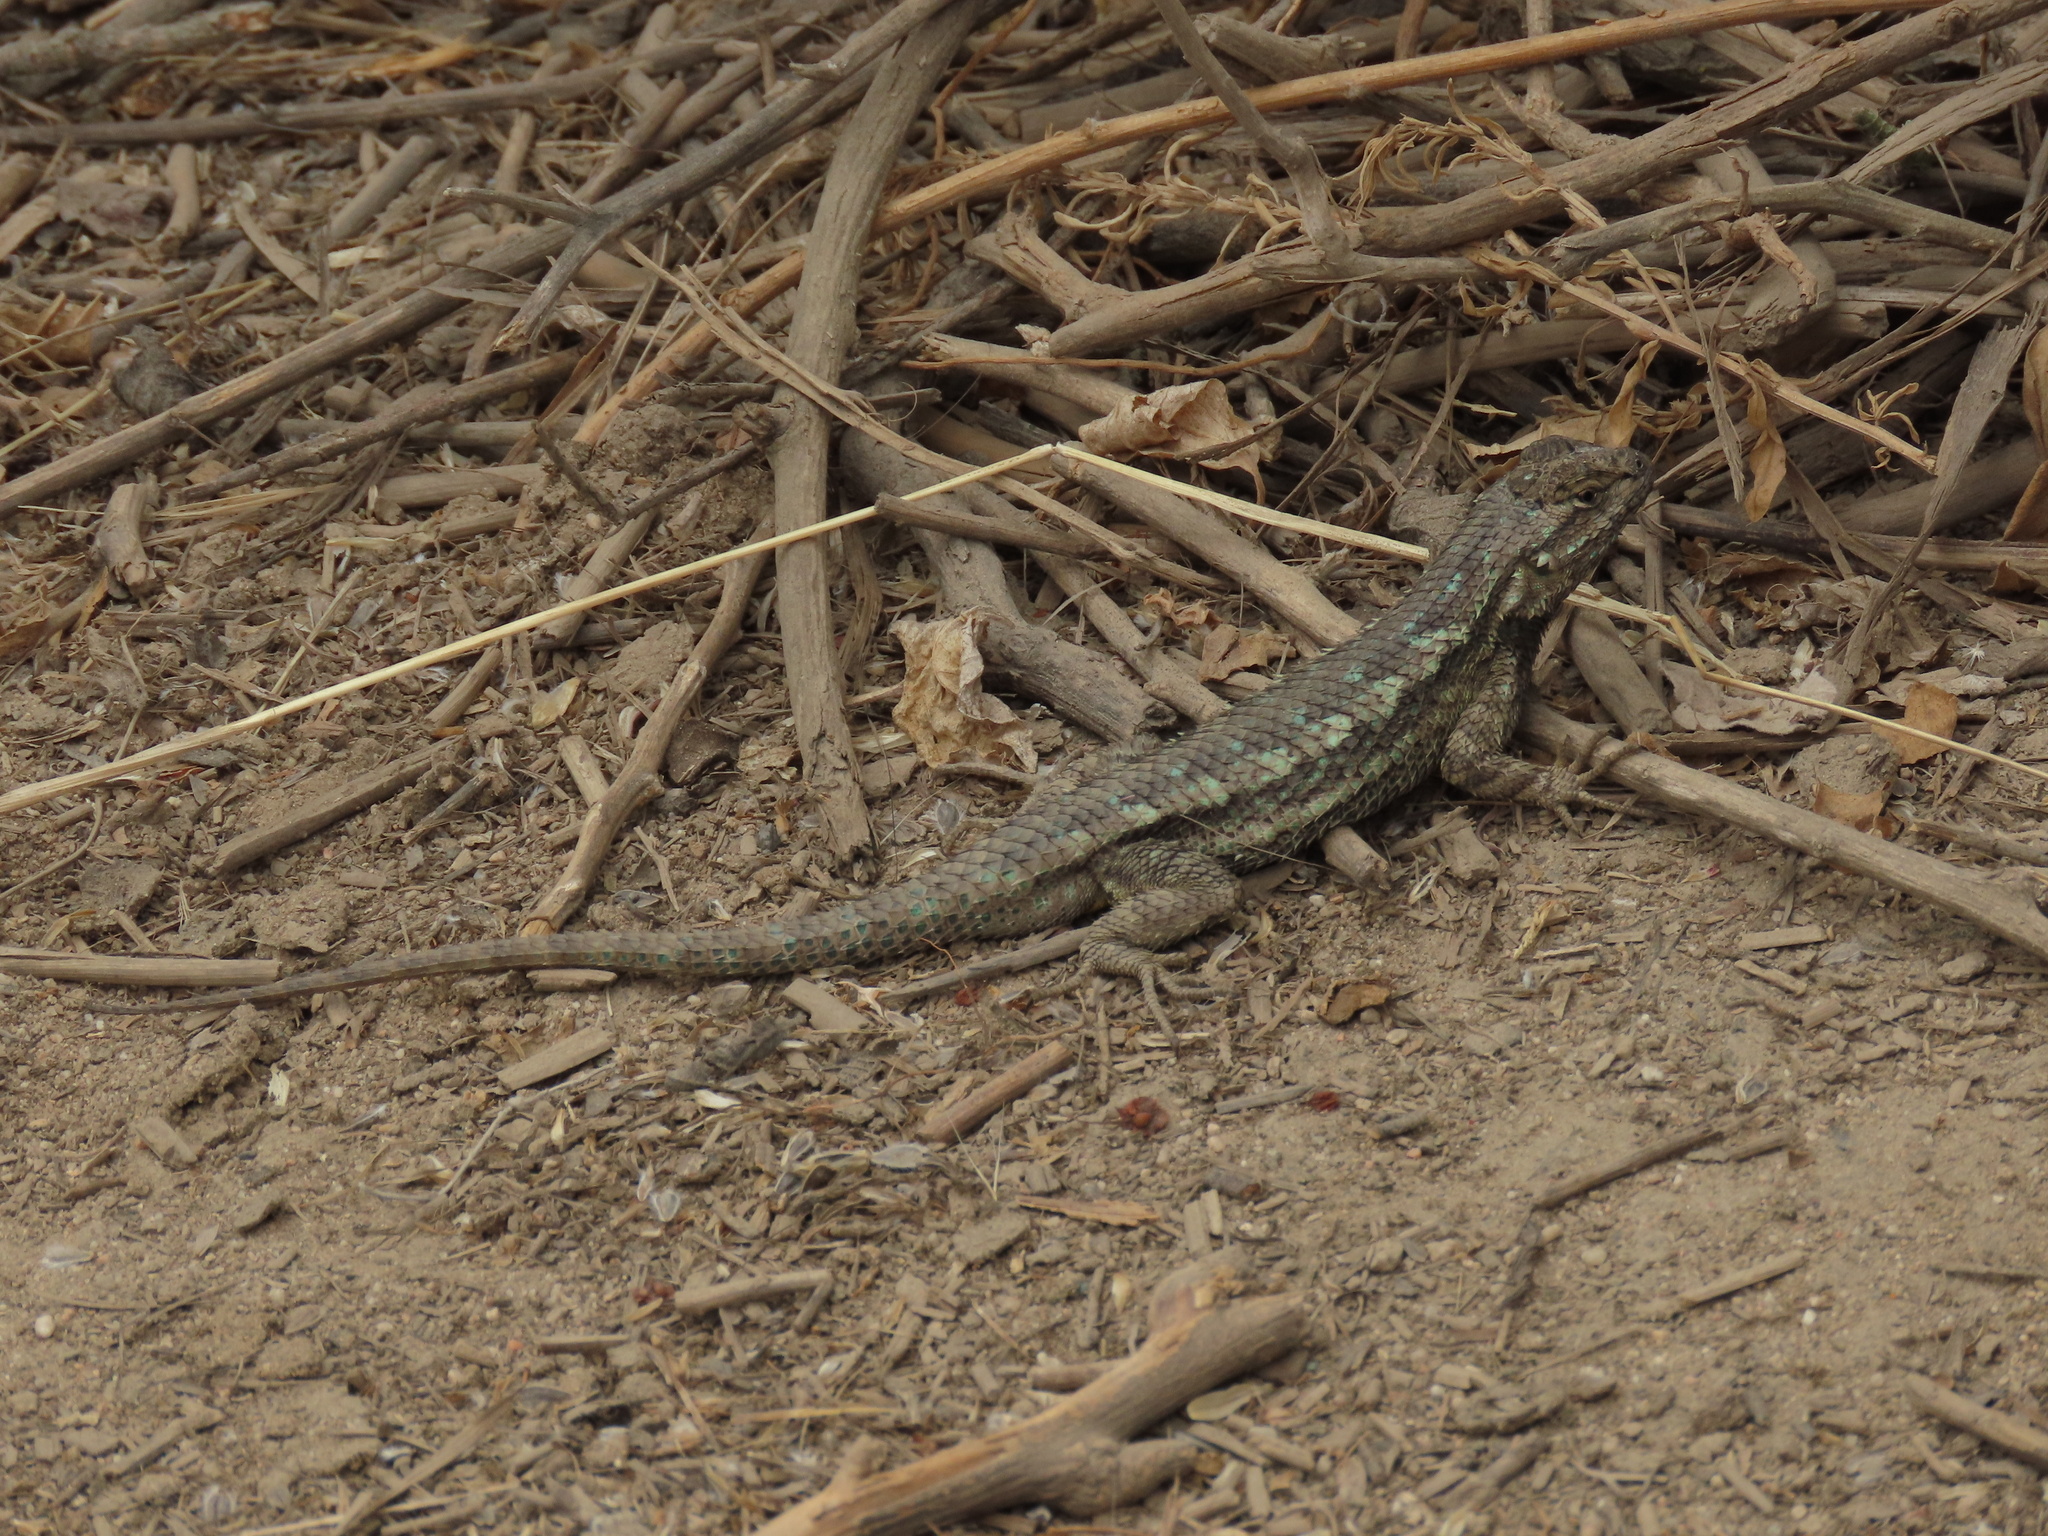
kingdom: Animalia
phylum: Chordata
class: Squamata
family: Phrynosomatidae
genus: Sceloporus
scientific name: Sceloporus occidentalis
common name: Western fence lizard
